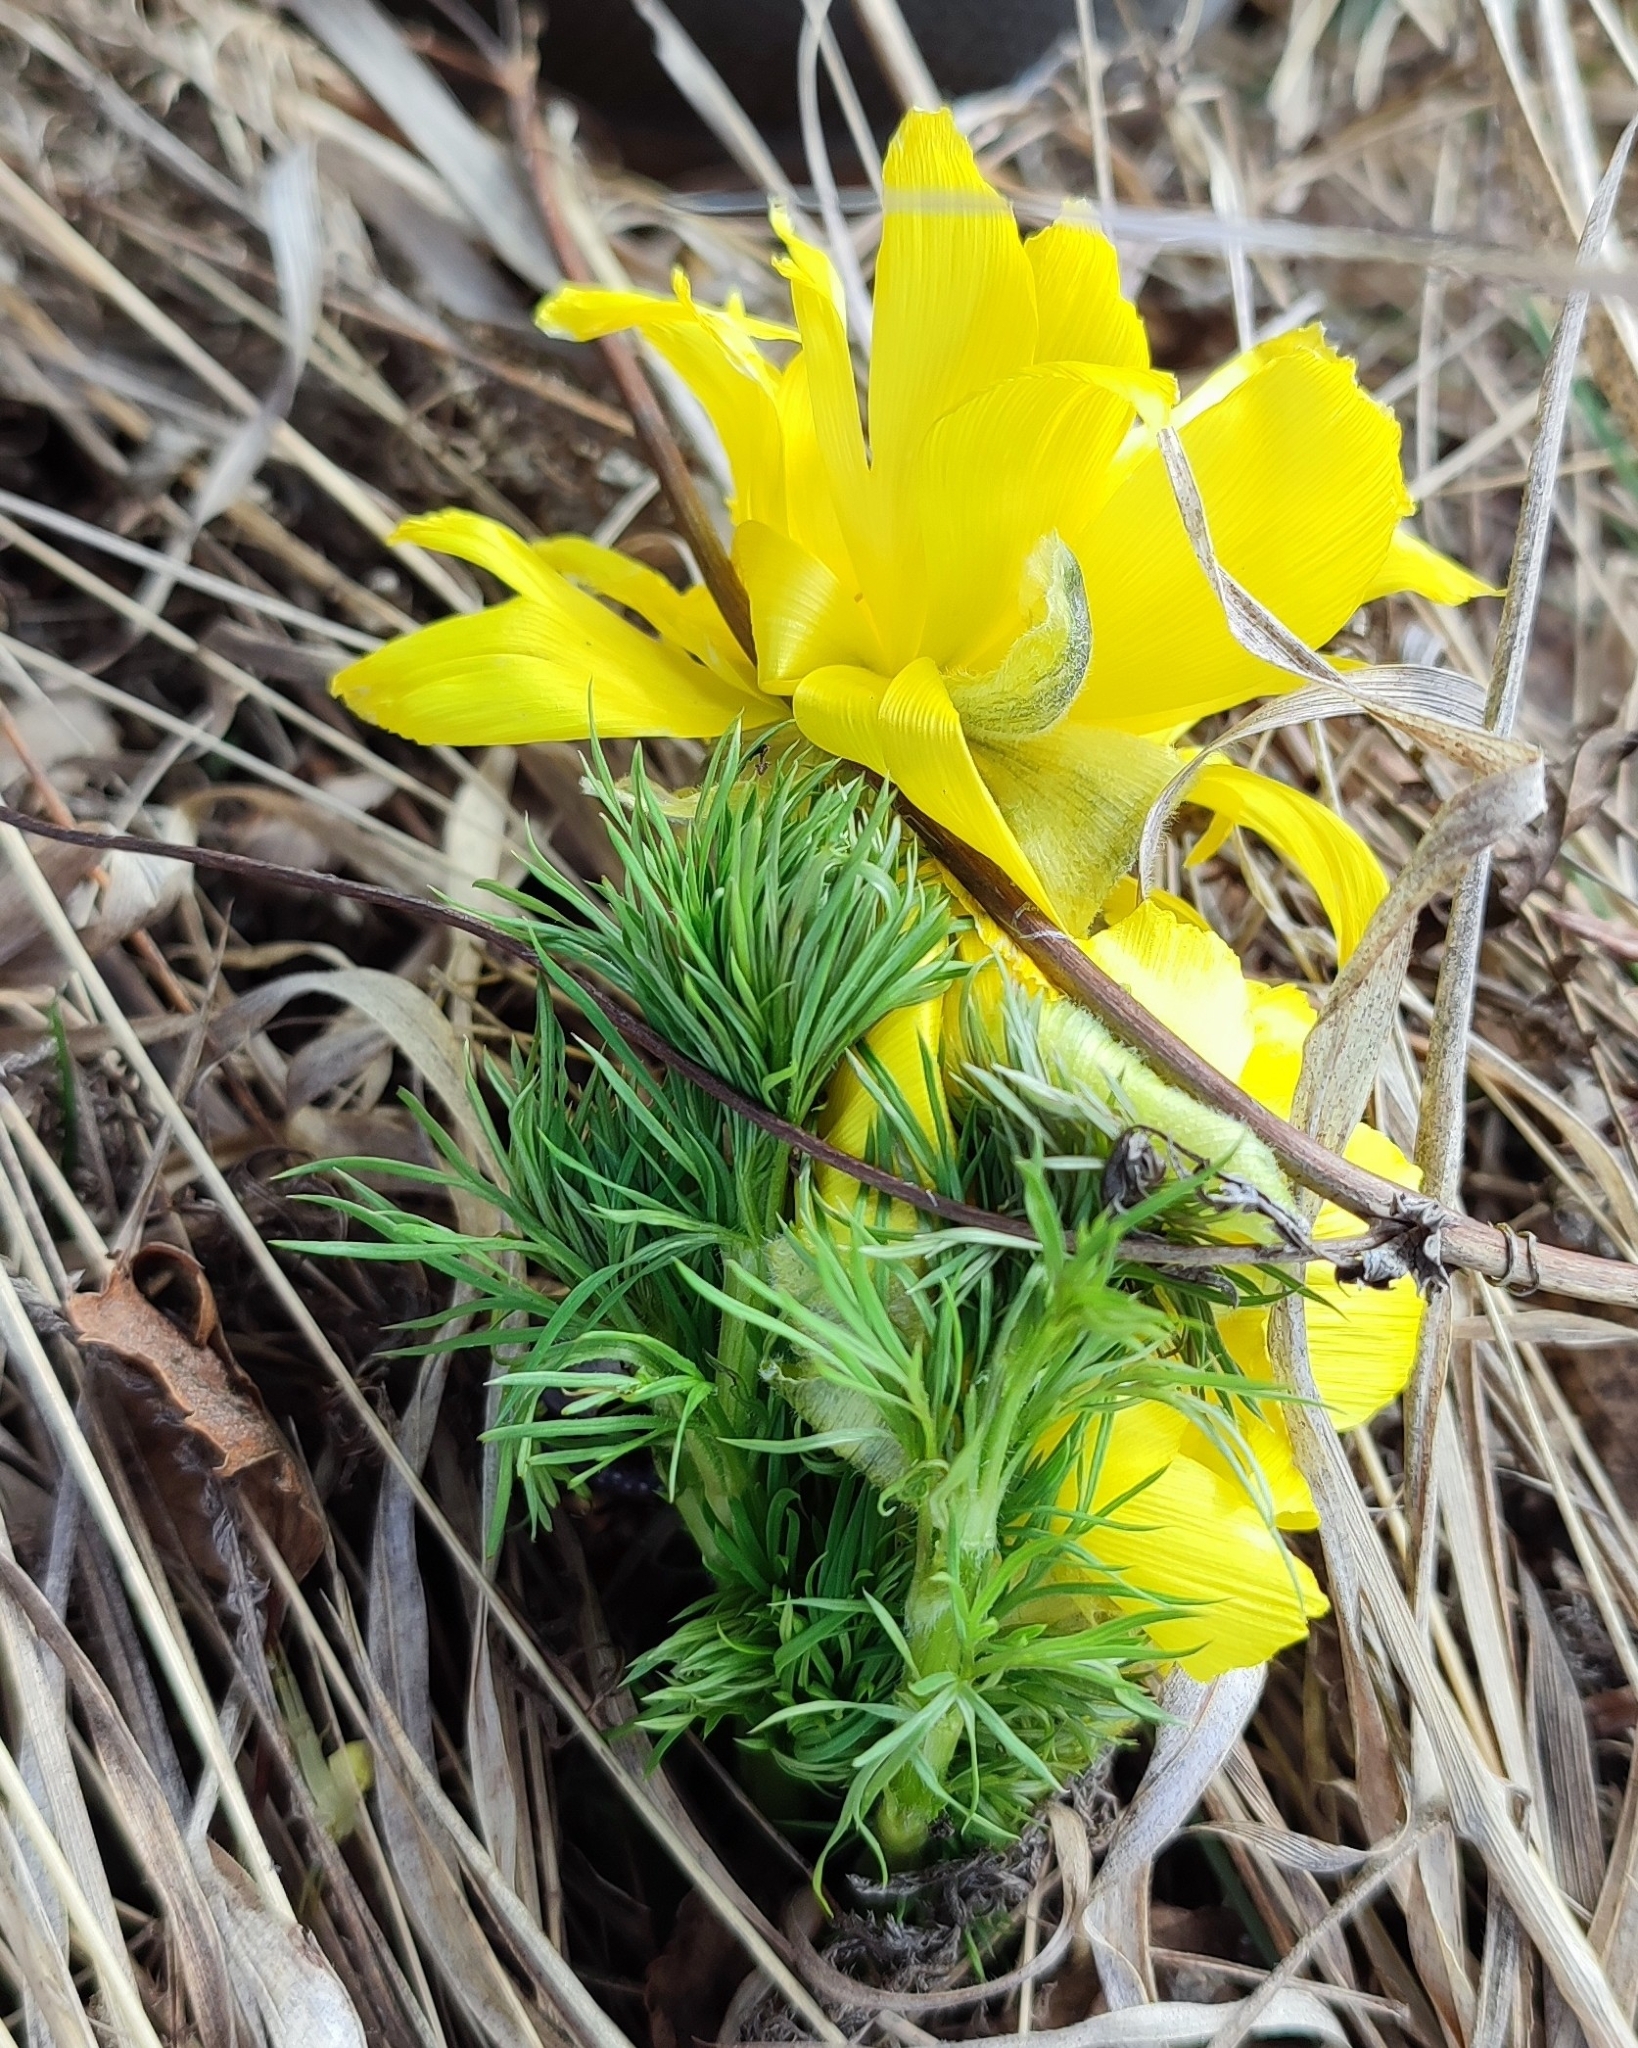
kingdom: Plantae
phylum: Tracheophyta
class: Magnoliopsida
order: Ranunculales
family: Ranunculaceae
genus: Adonis
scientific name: Adonis vernalis
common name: Yellow pheasants-eye
